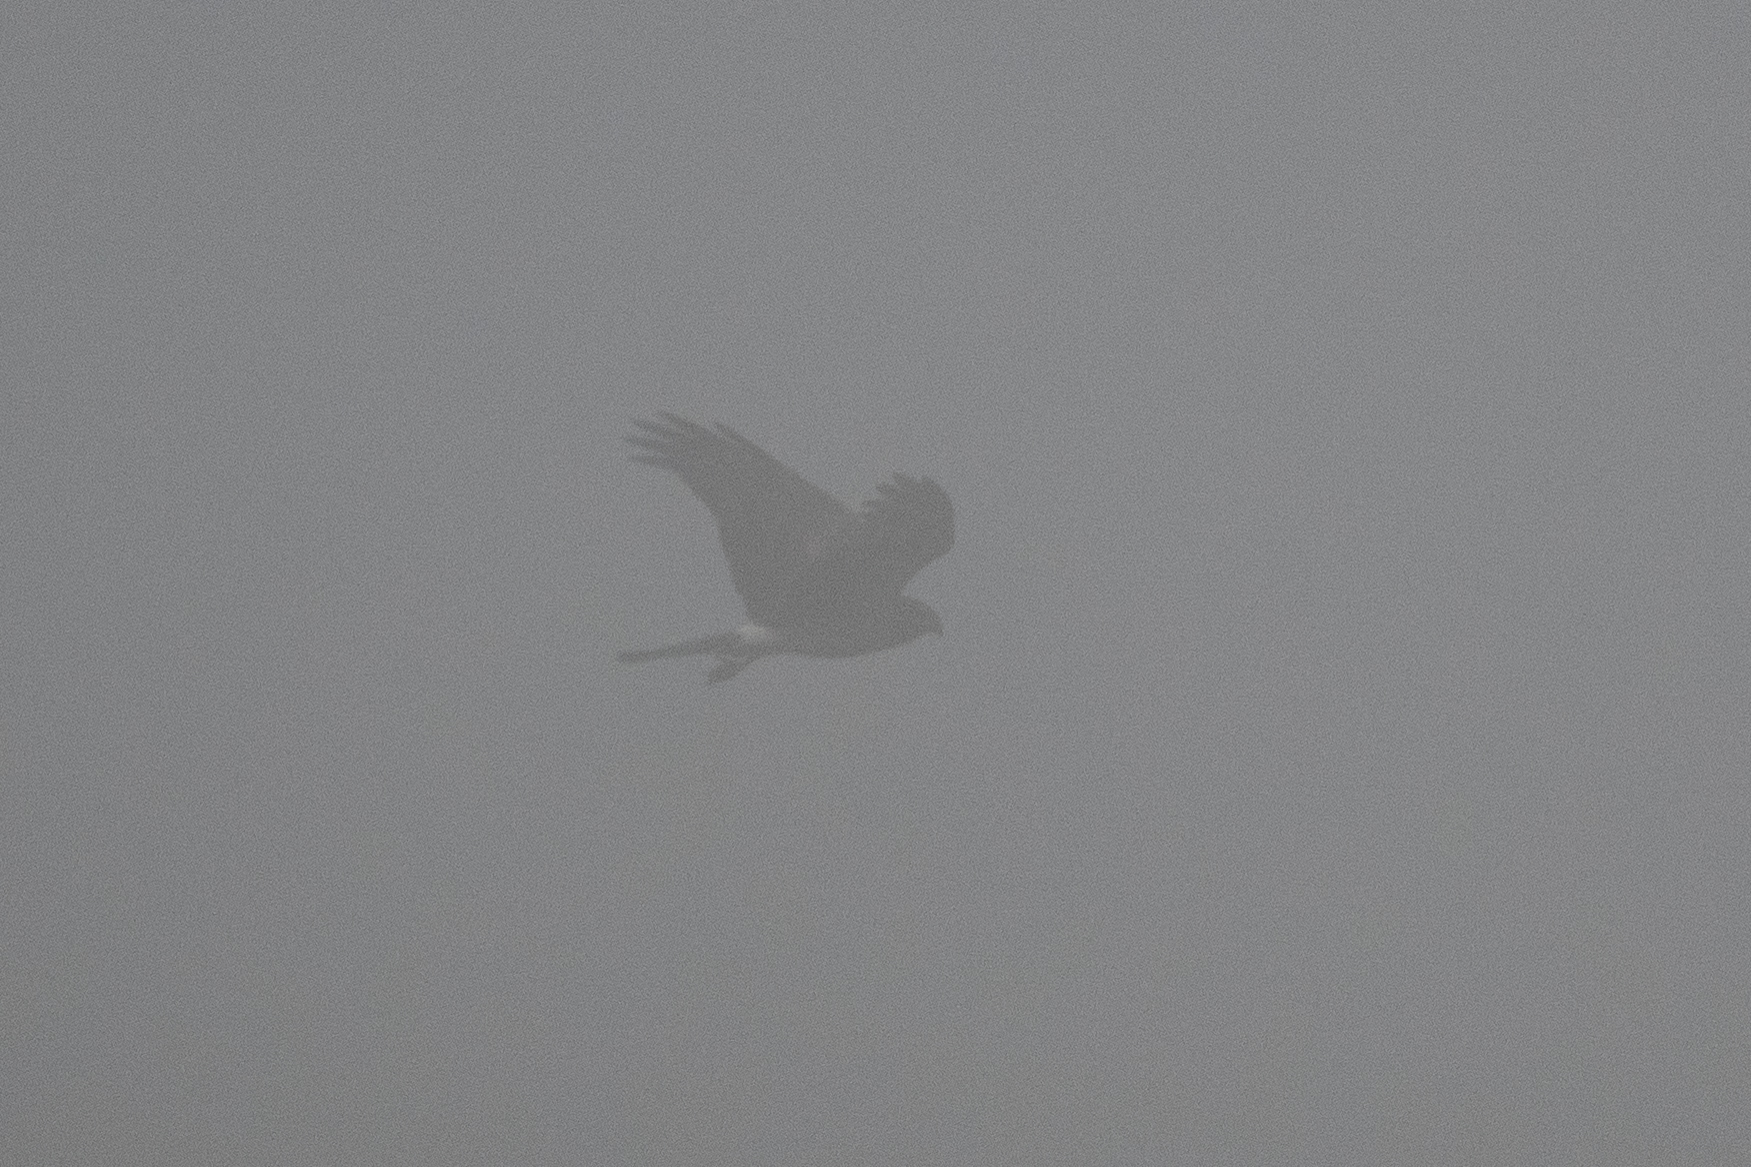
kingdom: Animalia
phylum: Chordata
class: Aves
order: Accipitriformes
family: Accipitridae
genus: Circus
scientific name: Circus cyaneus
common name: Hen harrier
